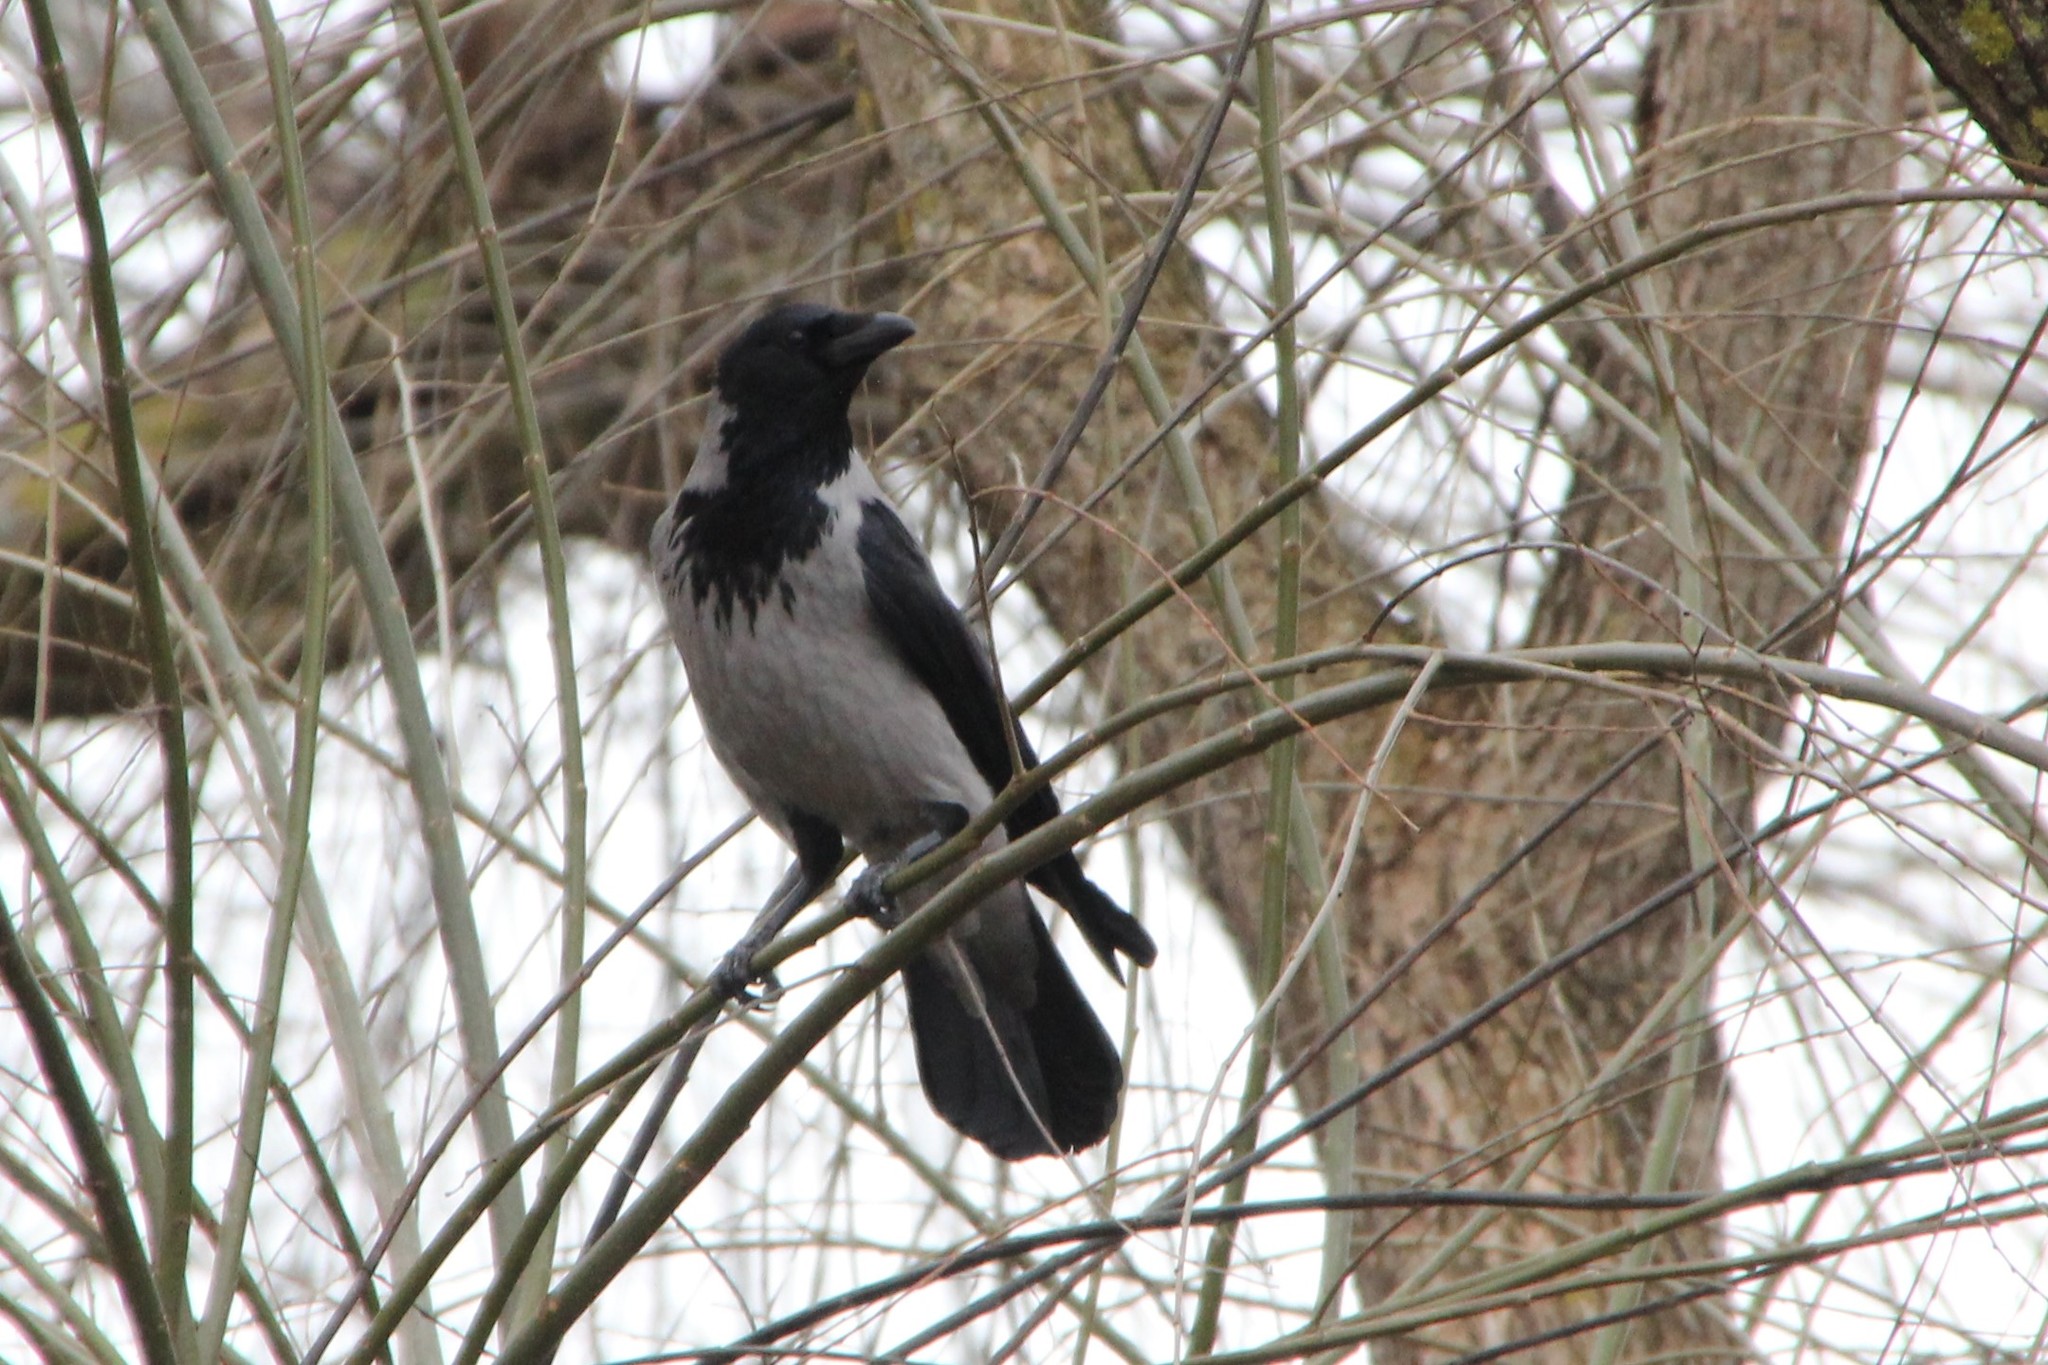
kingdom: Animalia
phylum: Chordata
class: Aves
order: Passeriformes
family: Corvidae
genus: Corvus
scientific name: Corvus cornix
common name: Hooded crow
